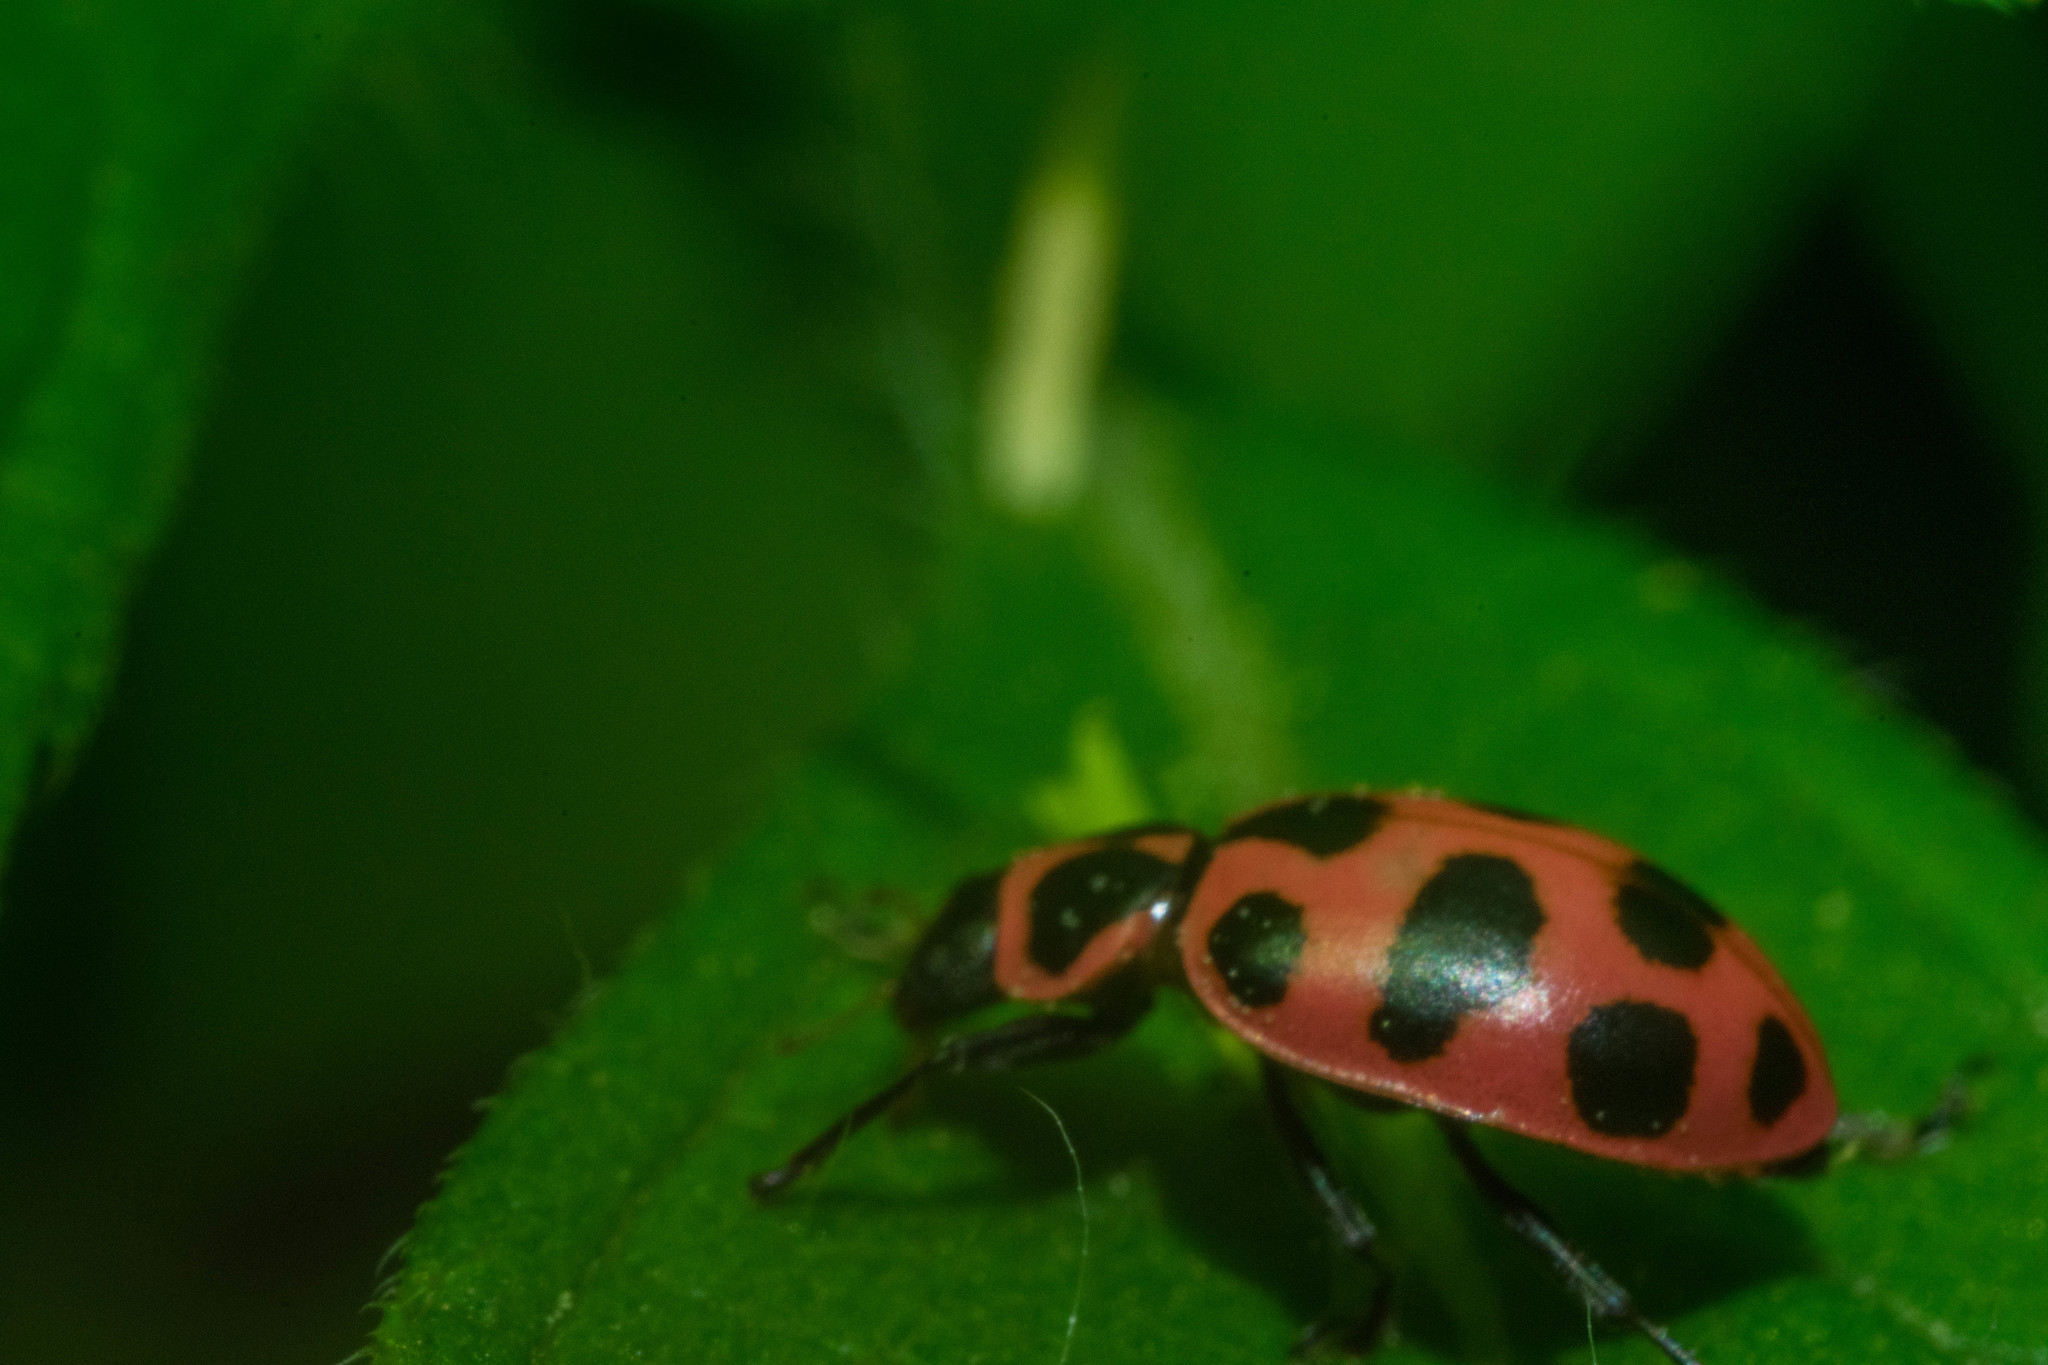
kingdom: Animalia
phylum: Arthropoda
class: Insecta
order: Coleoptera
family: Coccinellidae
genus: Coleomegilla
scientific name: Coleomegilla maculata
